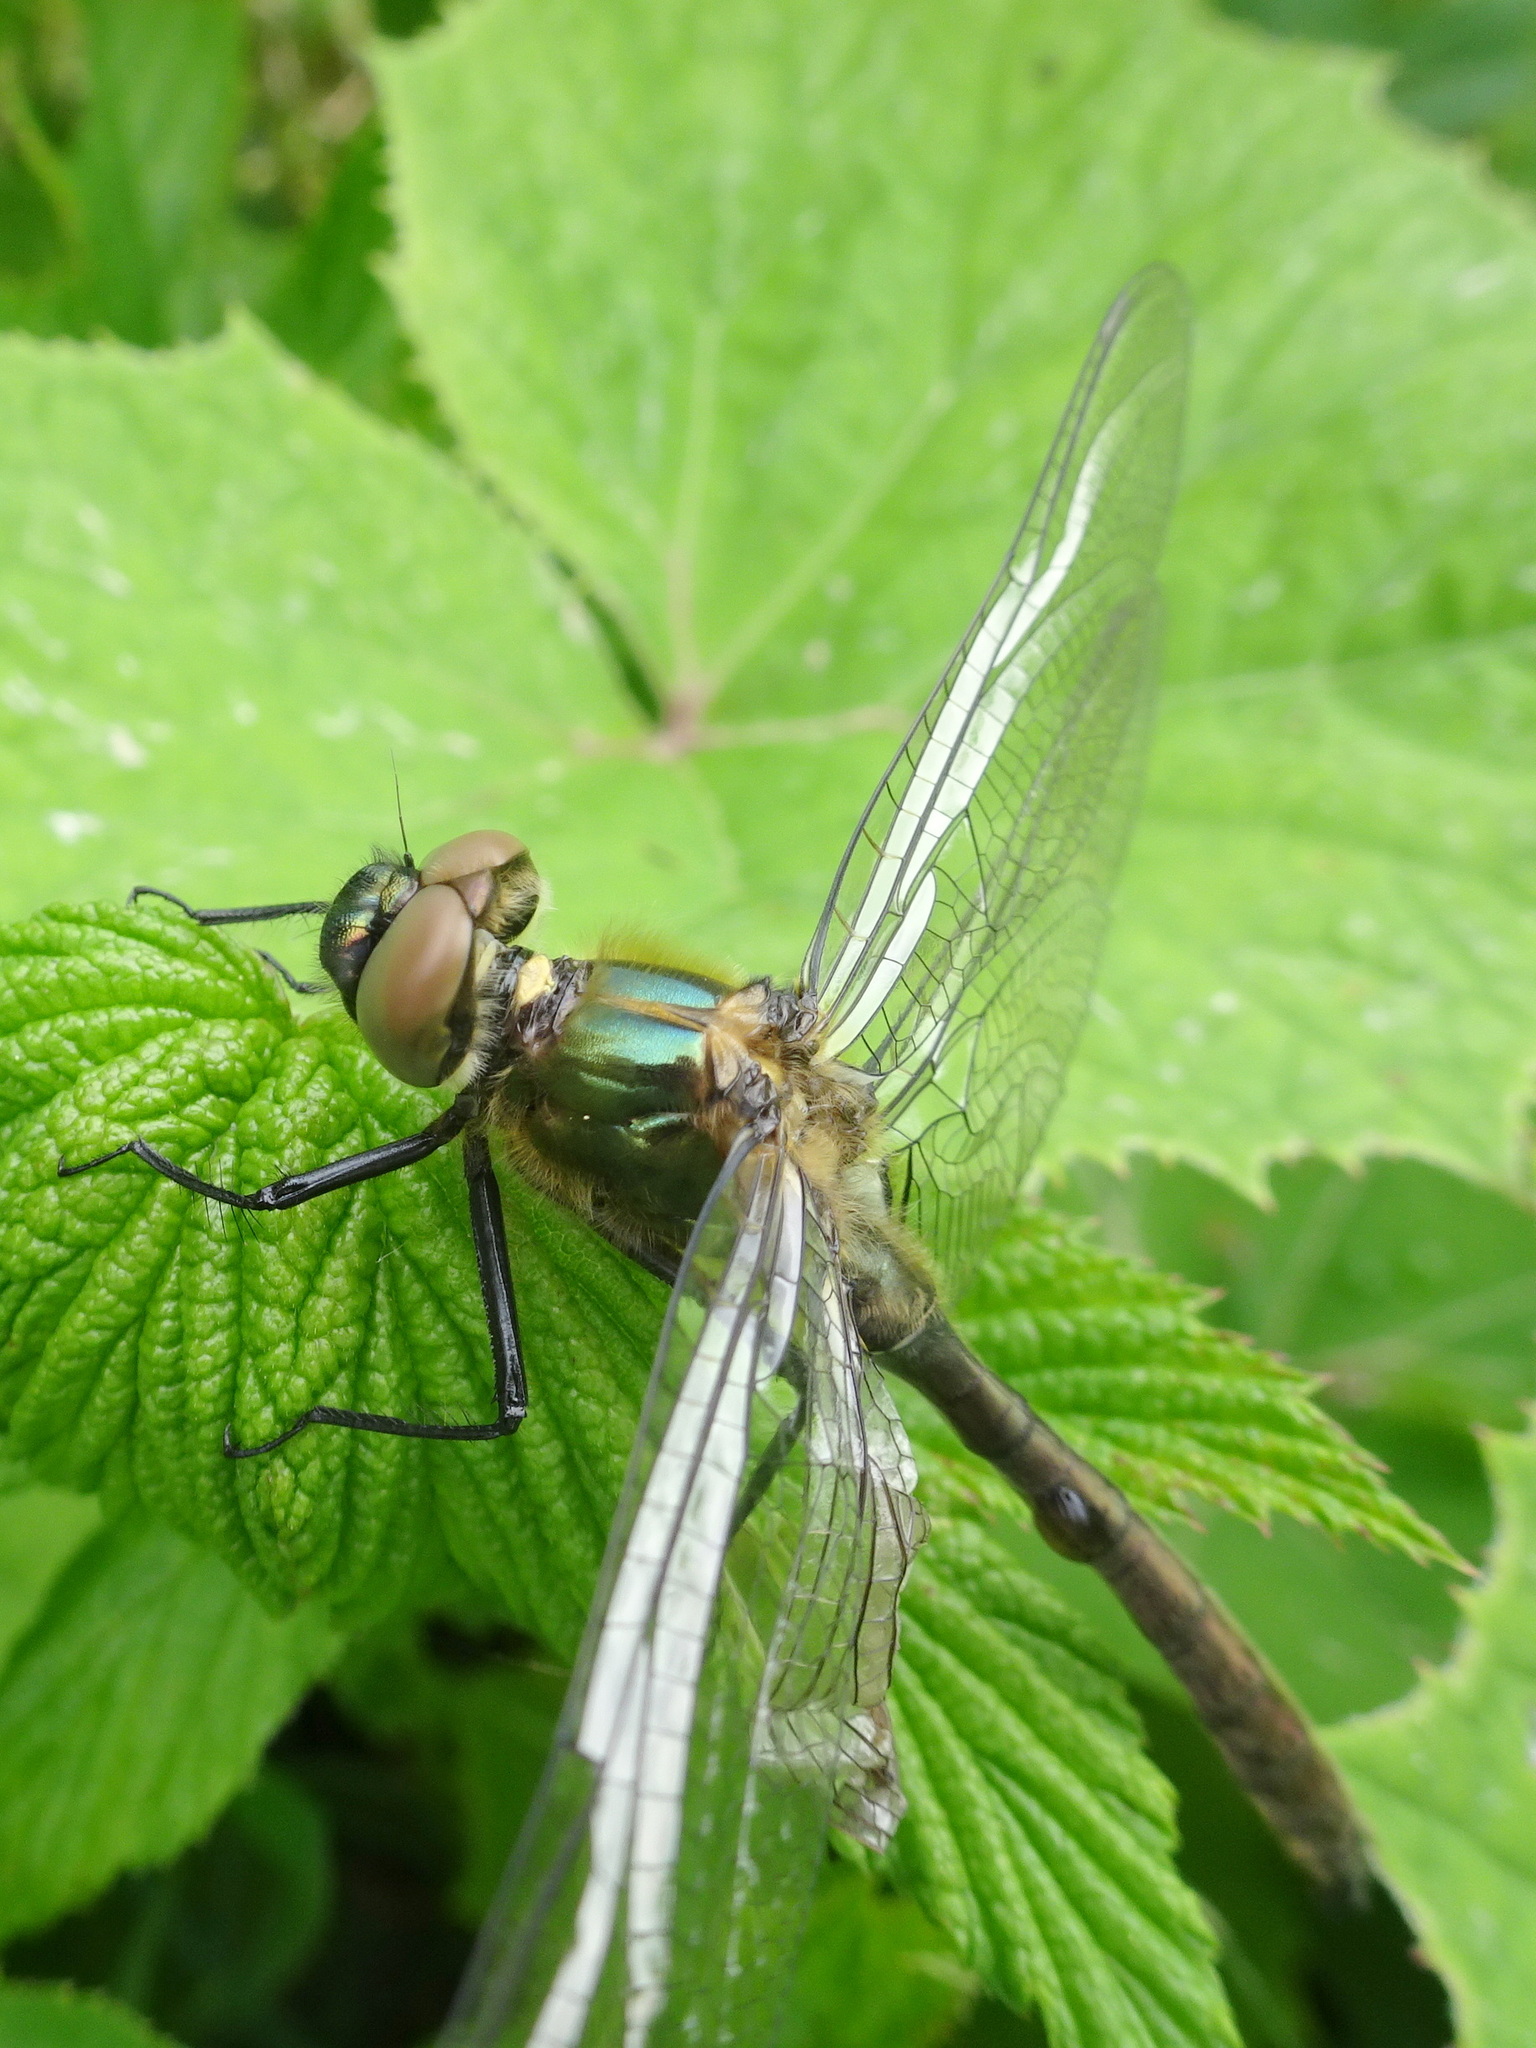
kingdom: Animalia
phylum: Arthropoda
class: Insecta
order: Odonata
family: Corduliidae
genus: Cordulia
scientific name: Cordulia aenea
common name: Downy emerald
